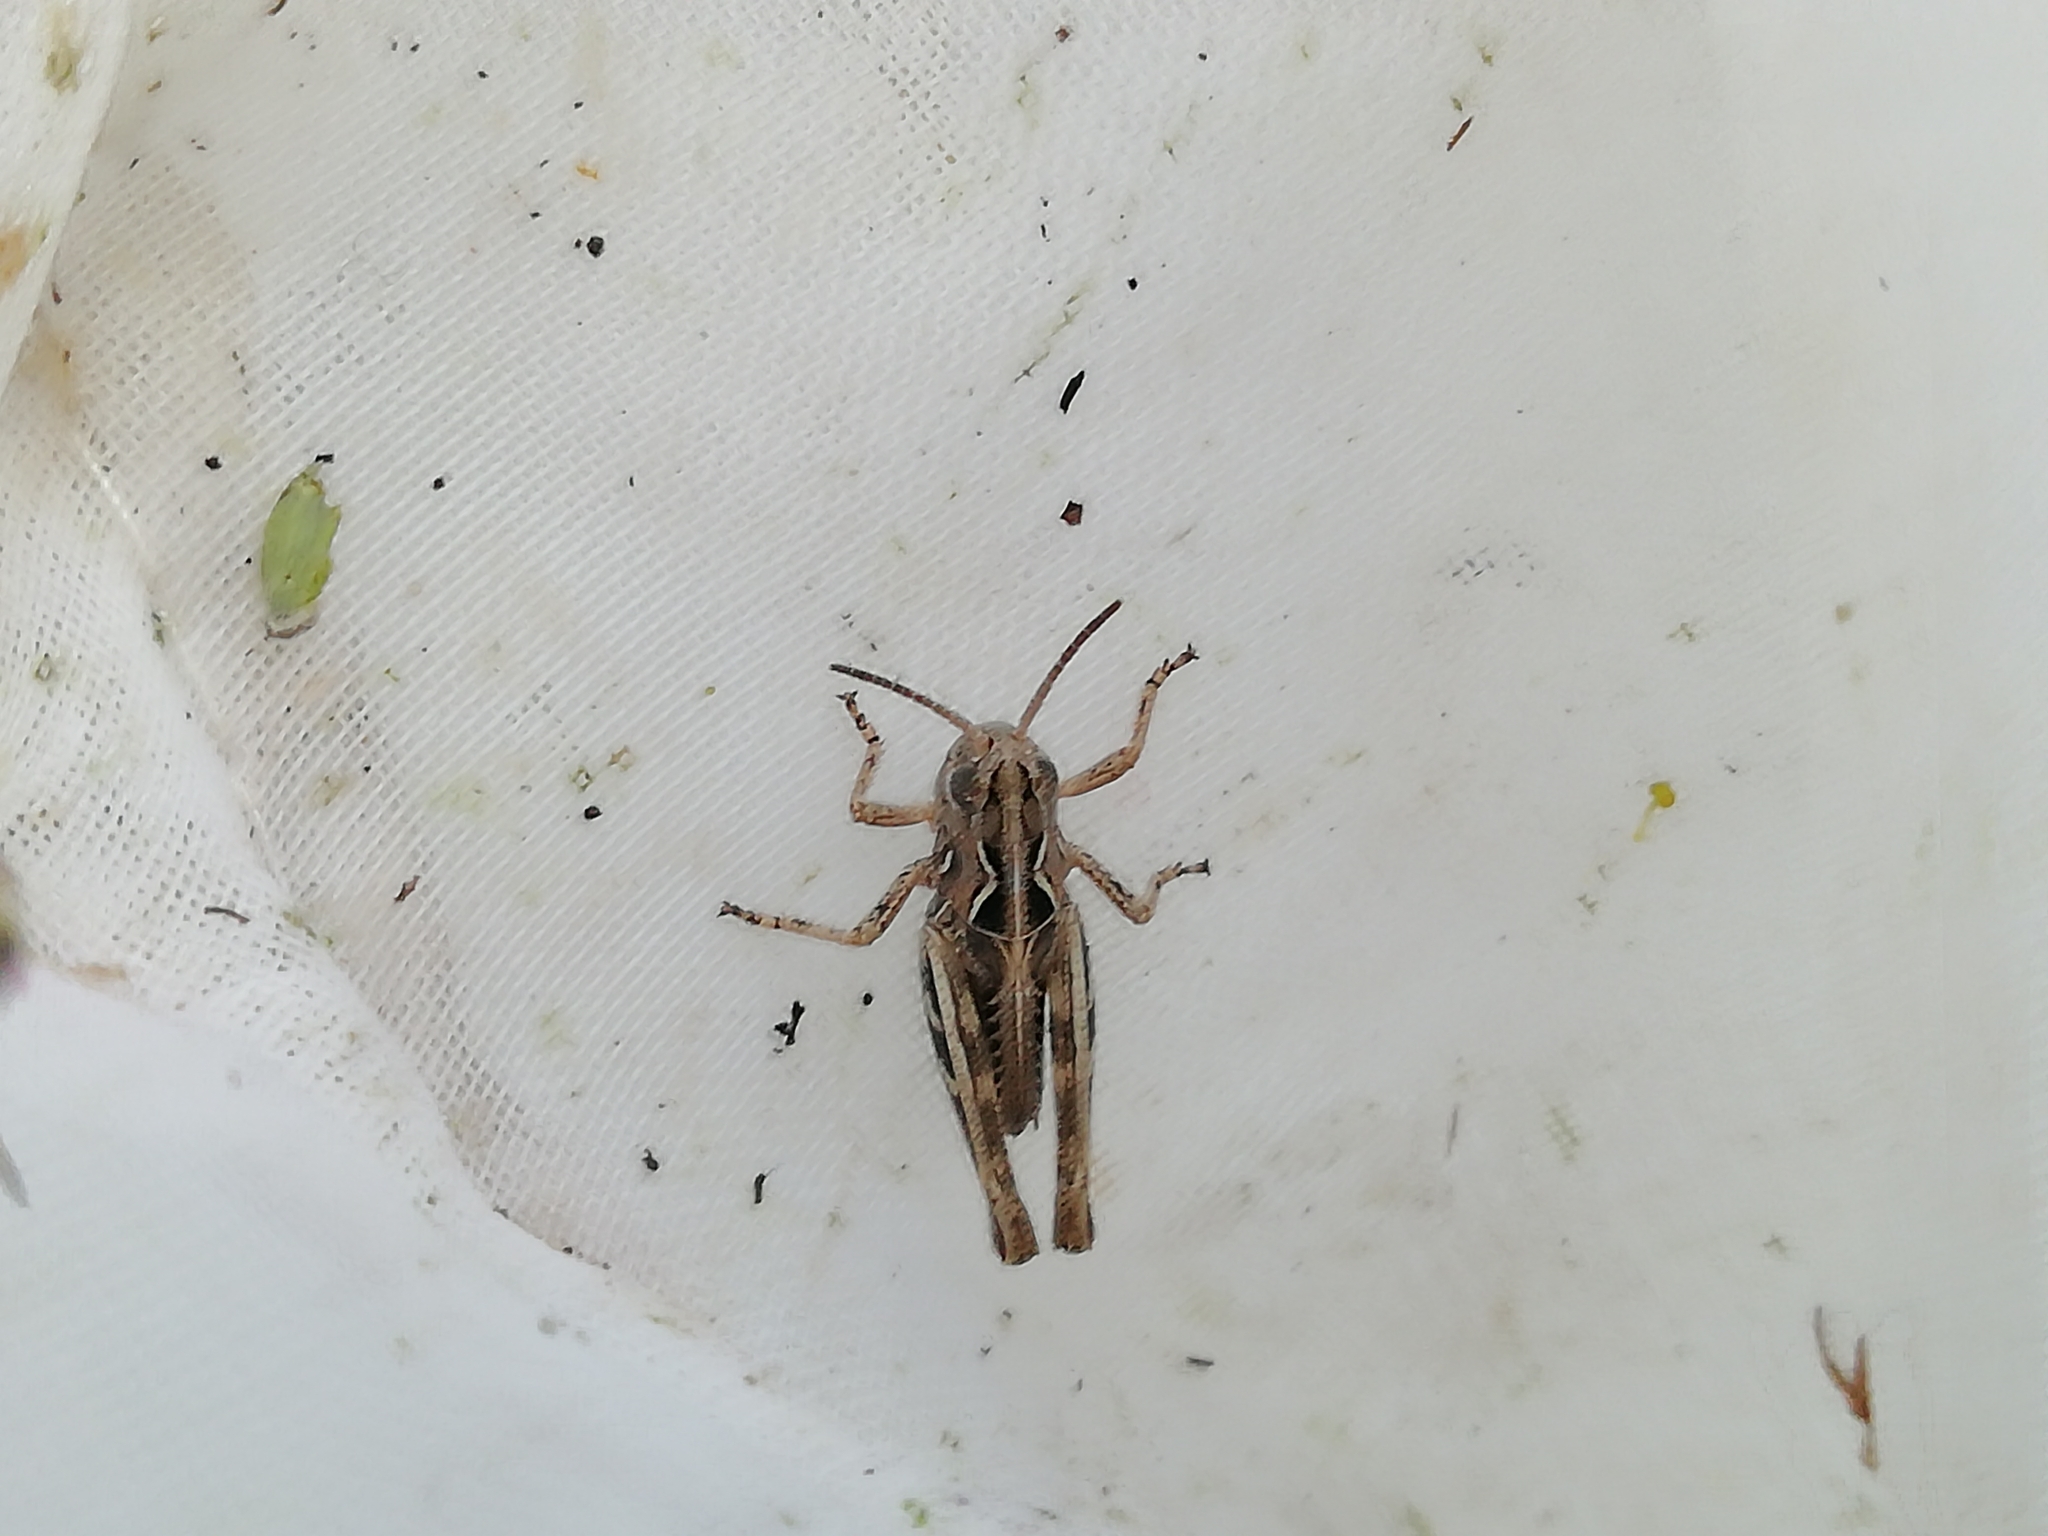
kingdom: Animalia
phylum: Arthropoda
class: Insecta
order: Orthoptera
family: Acrididae
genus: Arcyptera
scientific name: Arcyptera microptera
